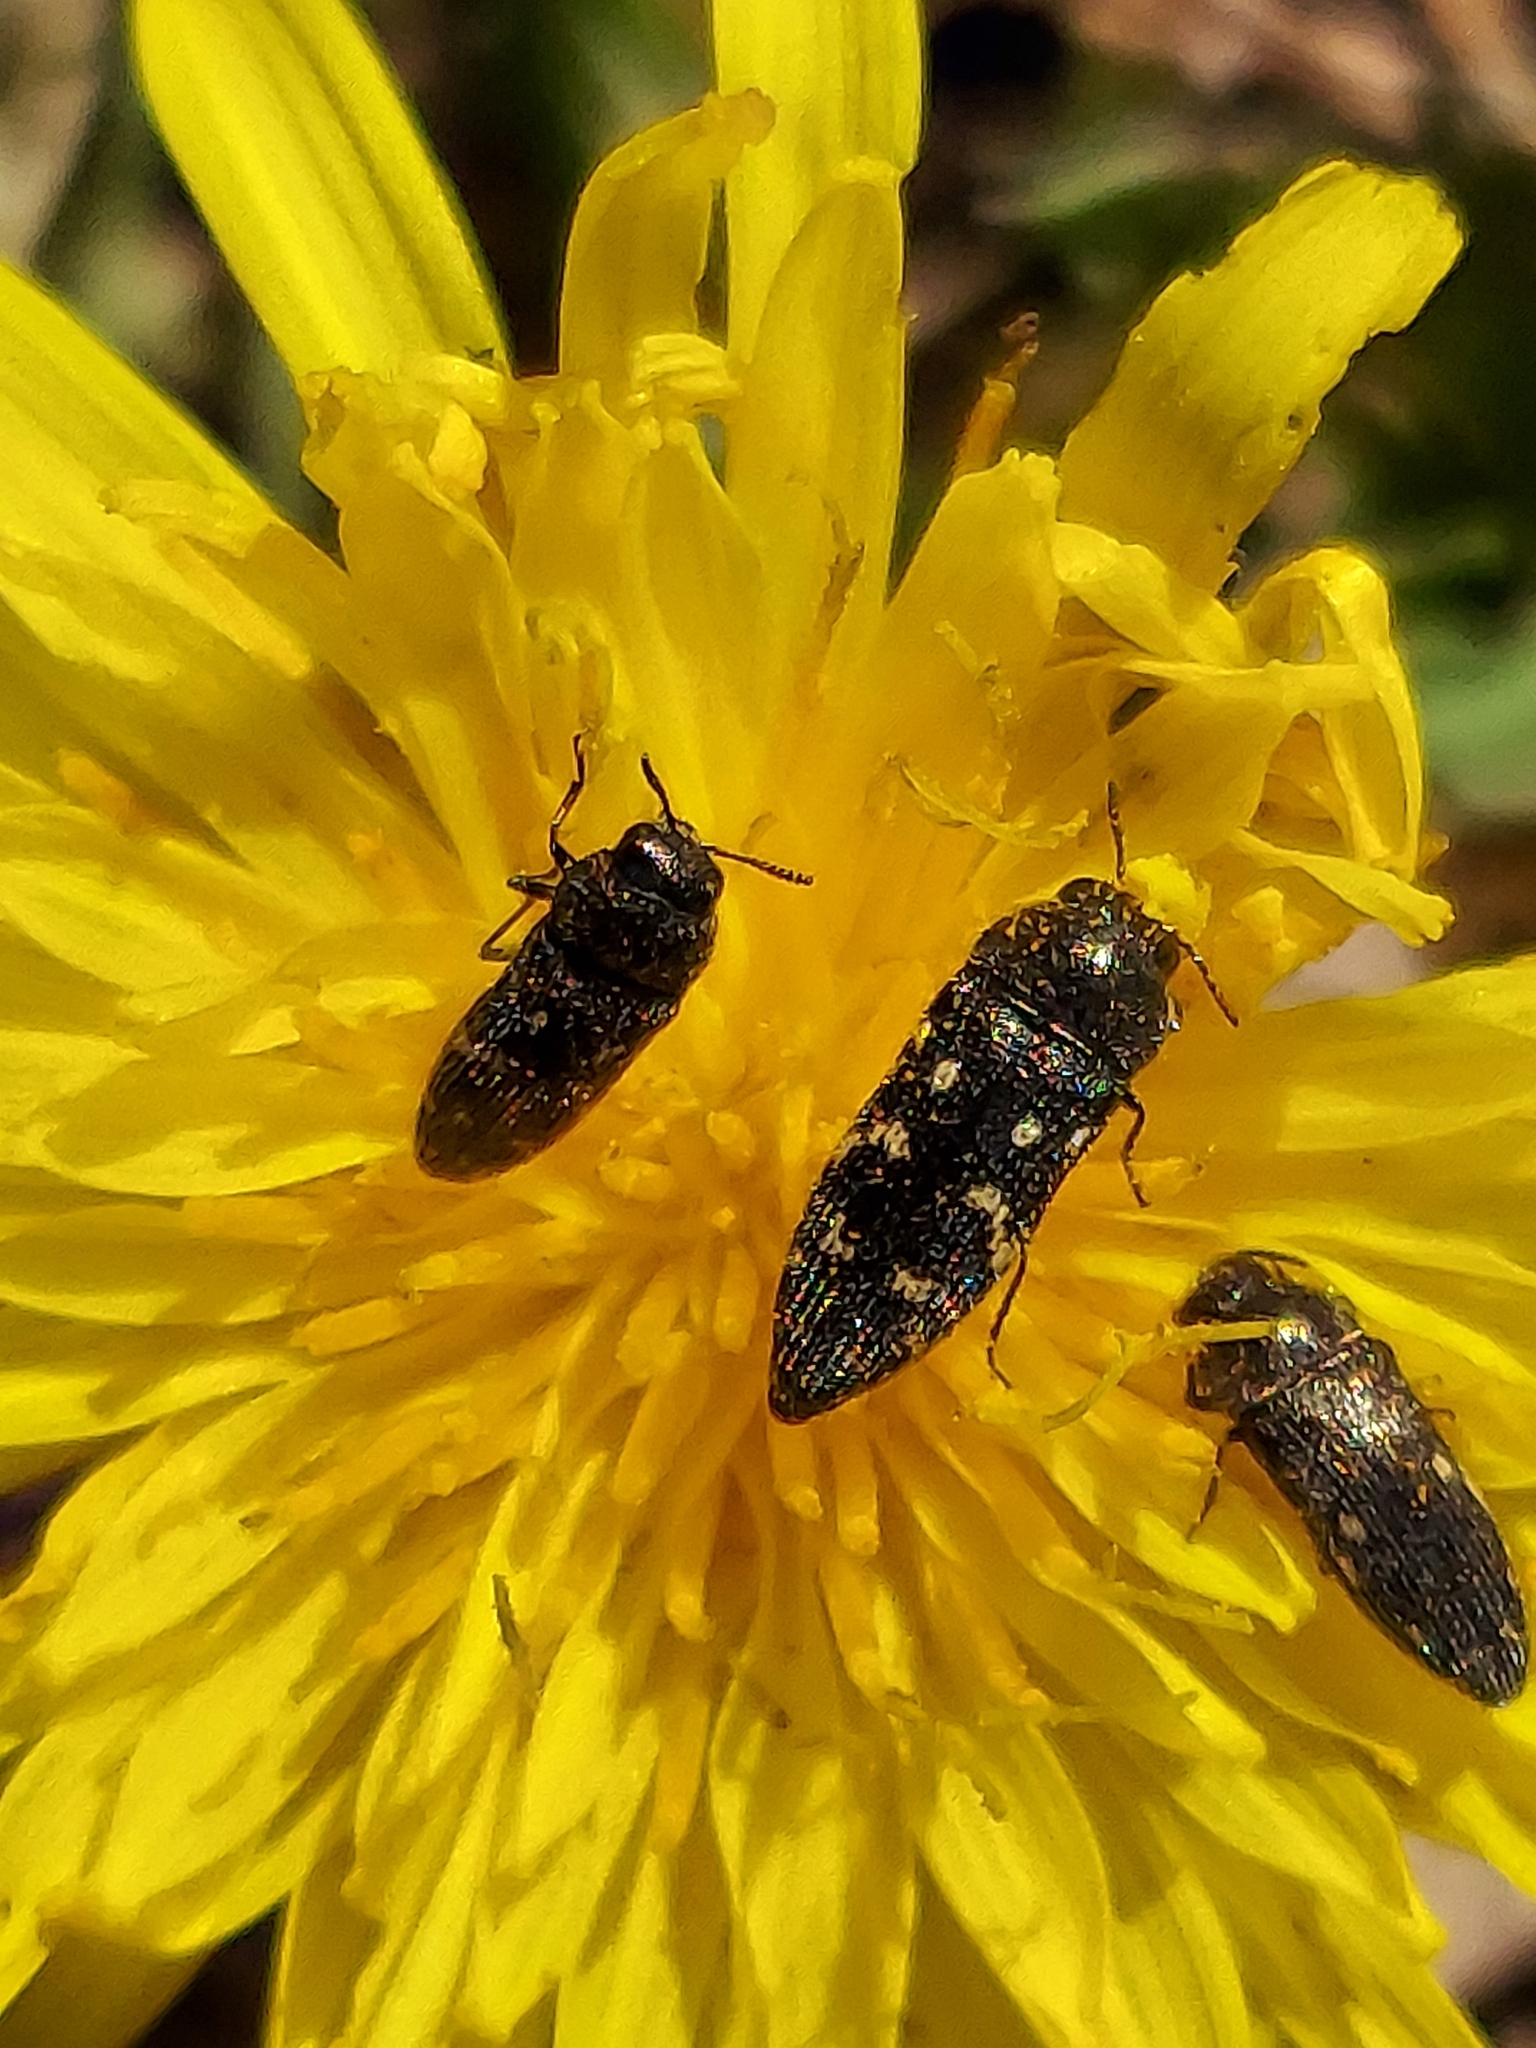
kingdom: Animalia
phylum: Arthropoda
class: Insecta
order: Coleoptera
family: Buprestidae
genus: Acmaeodera
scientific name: Acmaeodera tubulus
